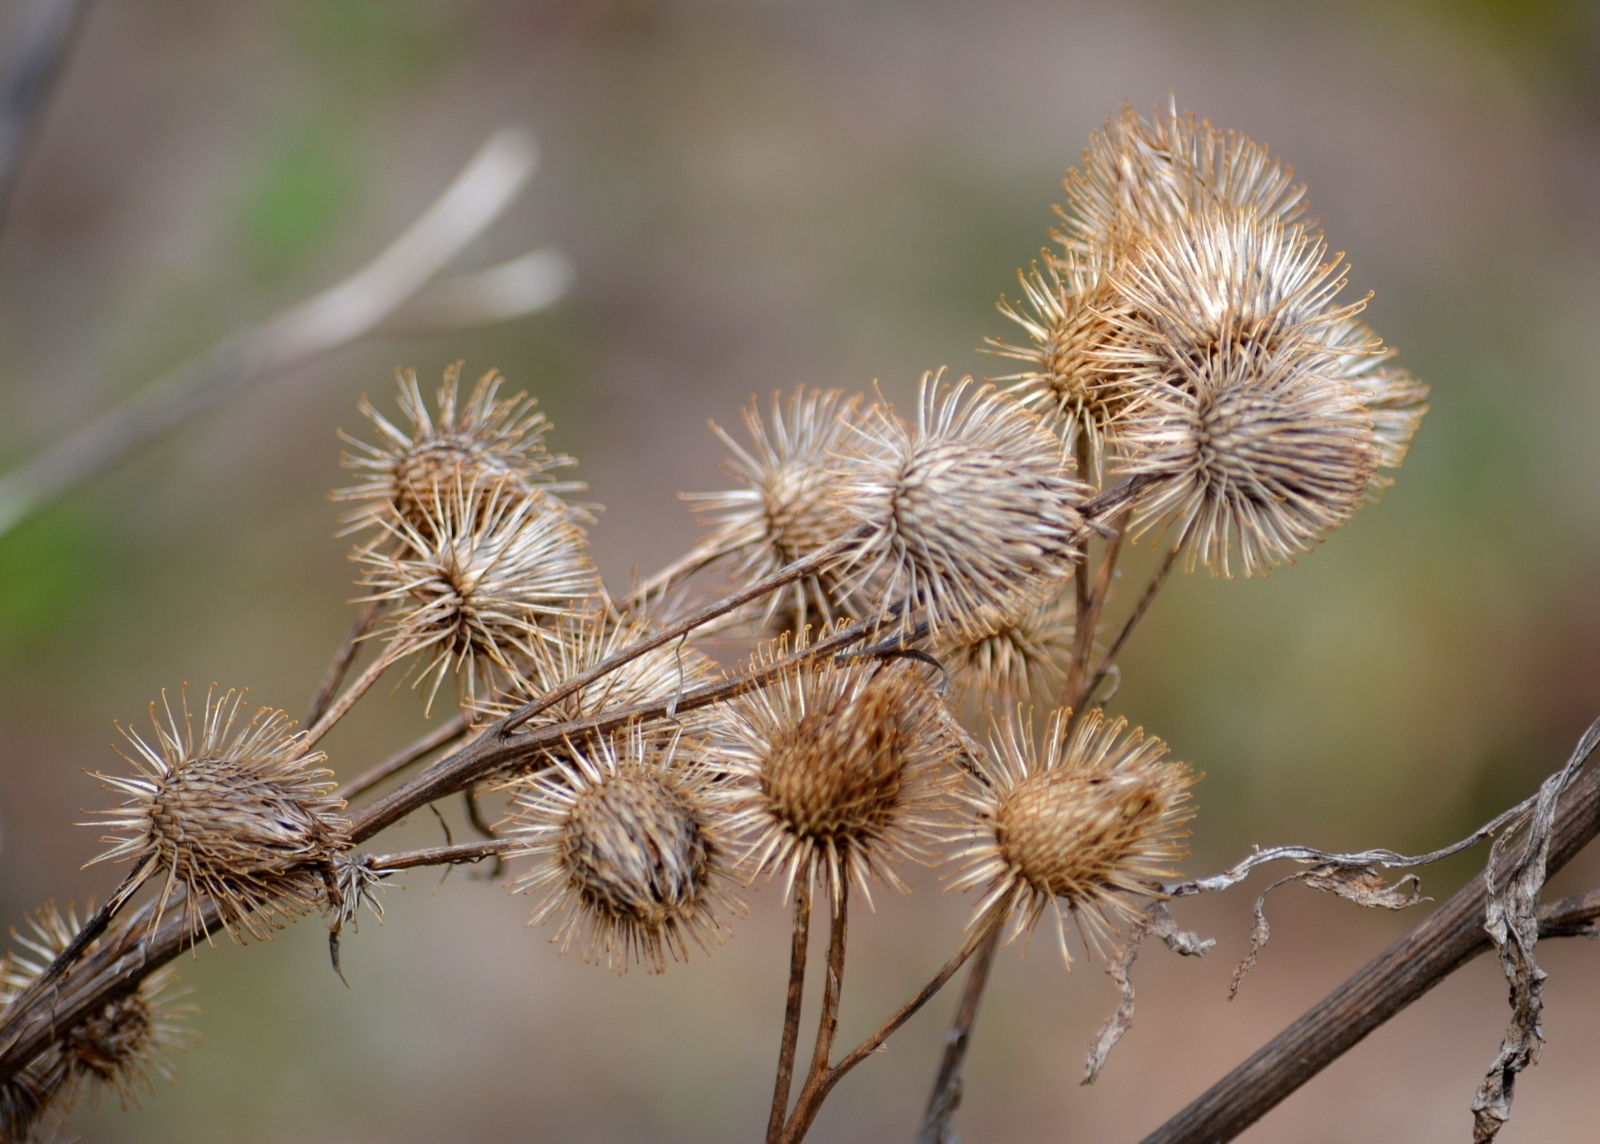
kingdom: Plantae
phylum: Tracheophyta
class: Magnoliopsida
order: Asterales
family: Asteraceae
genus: Arctium
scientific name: Arctium lappa
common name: Greater burdock
